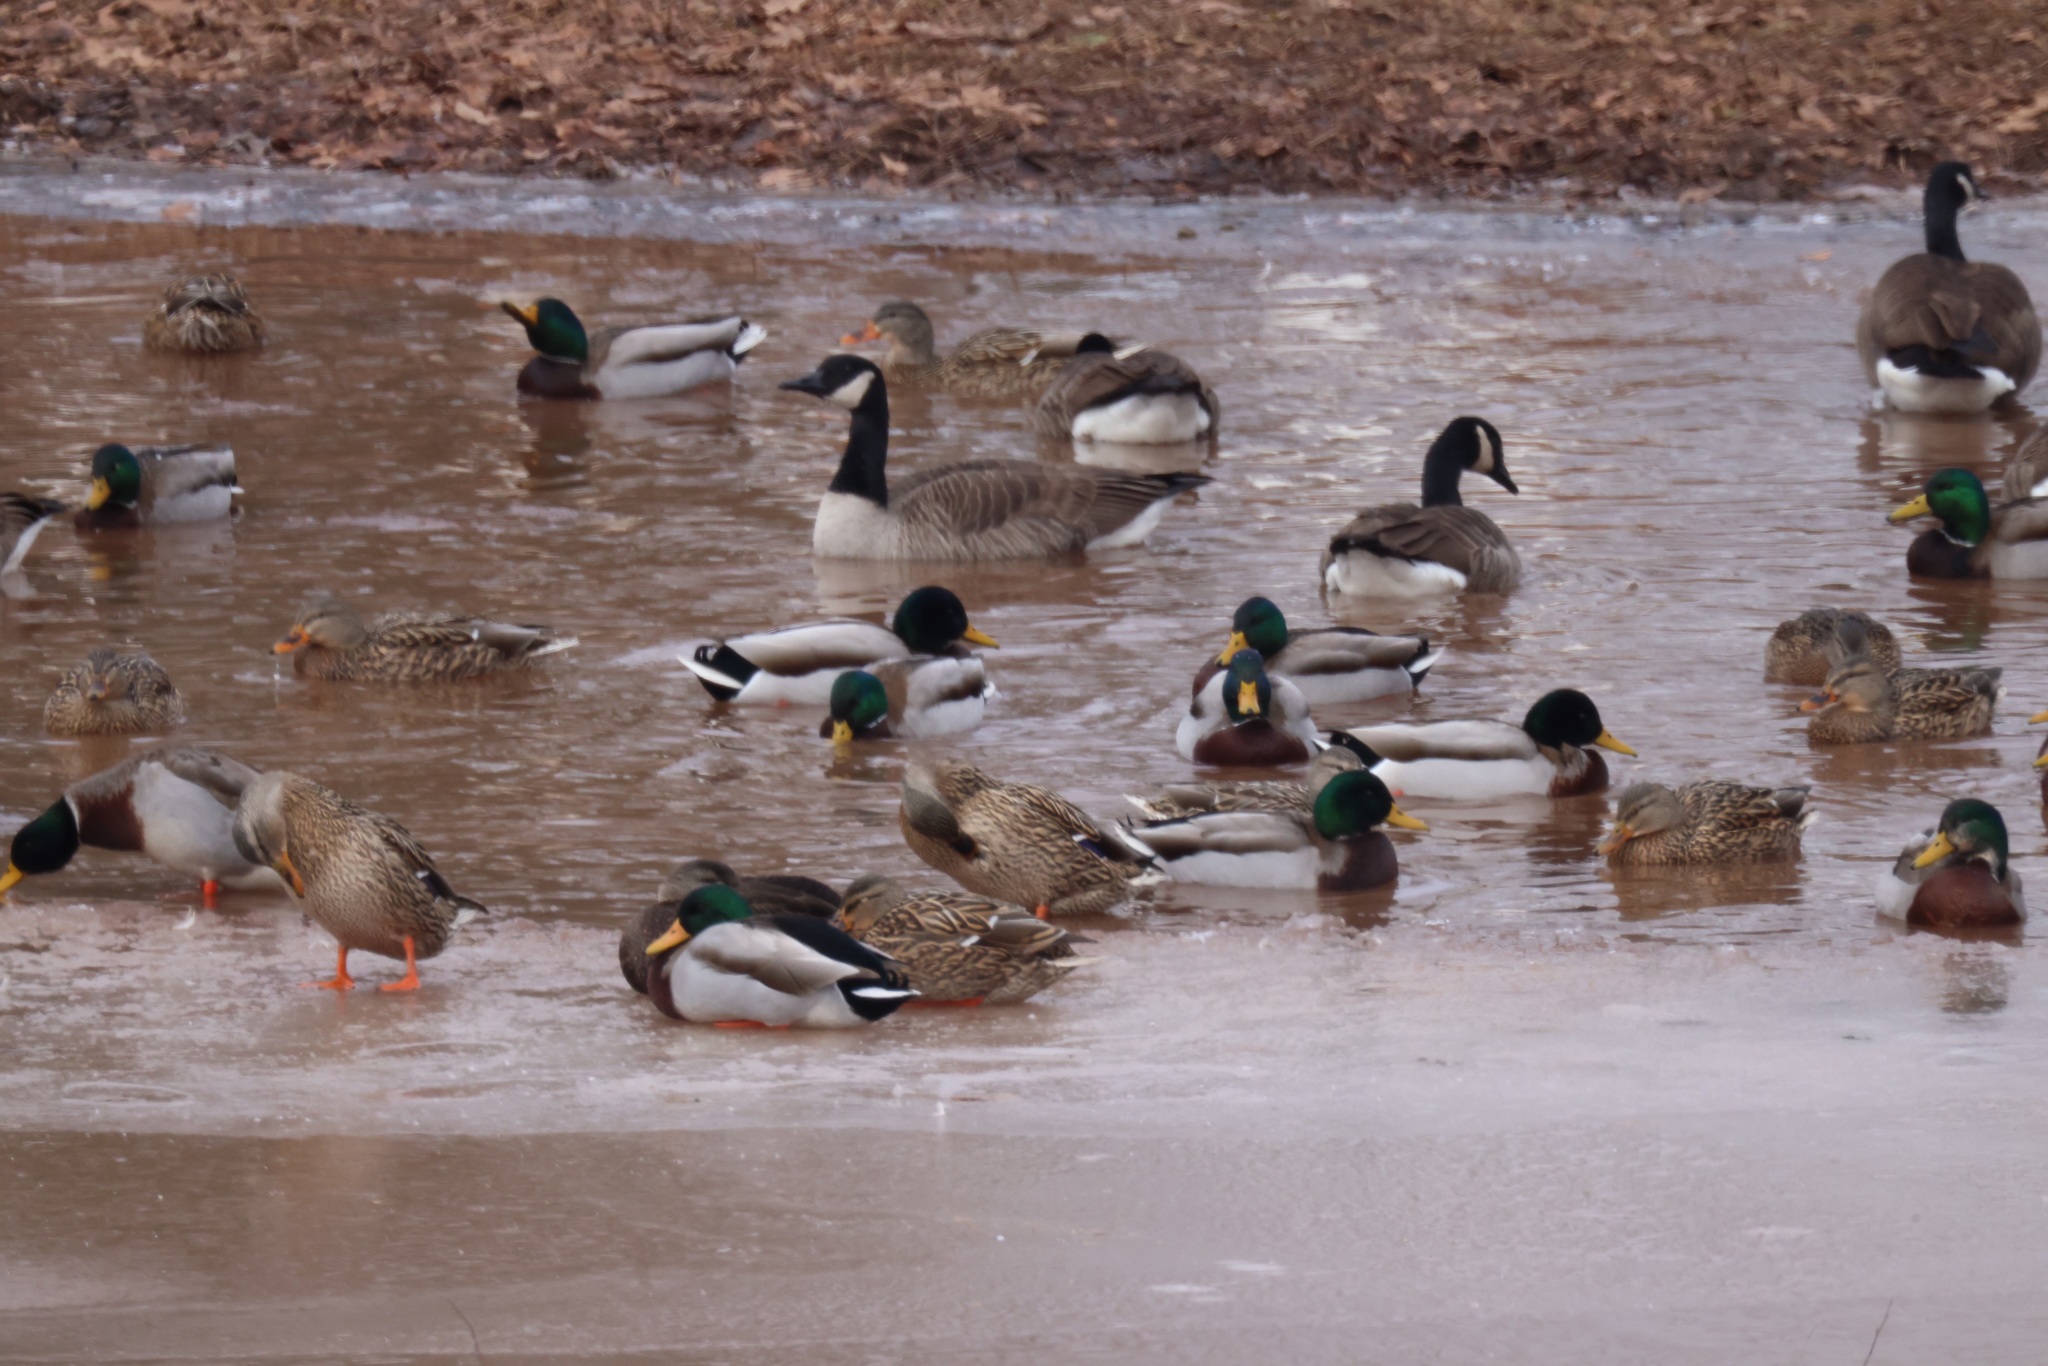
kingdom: Animalia
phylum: Chordata
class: Aves
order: Anseriformes
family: Anatidae
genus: Anas
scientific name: Anas platyrhynchos
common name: Mallard
